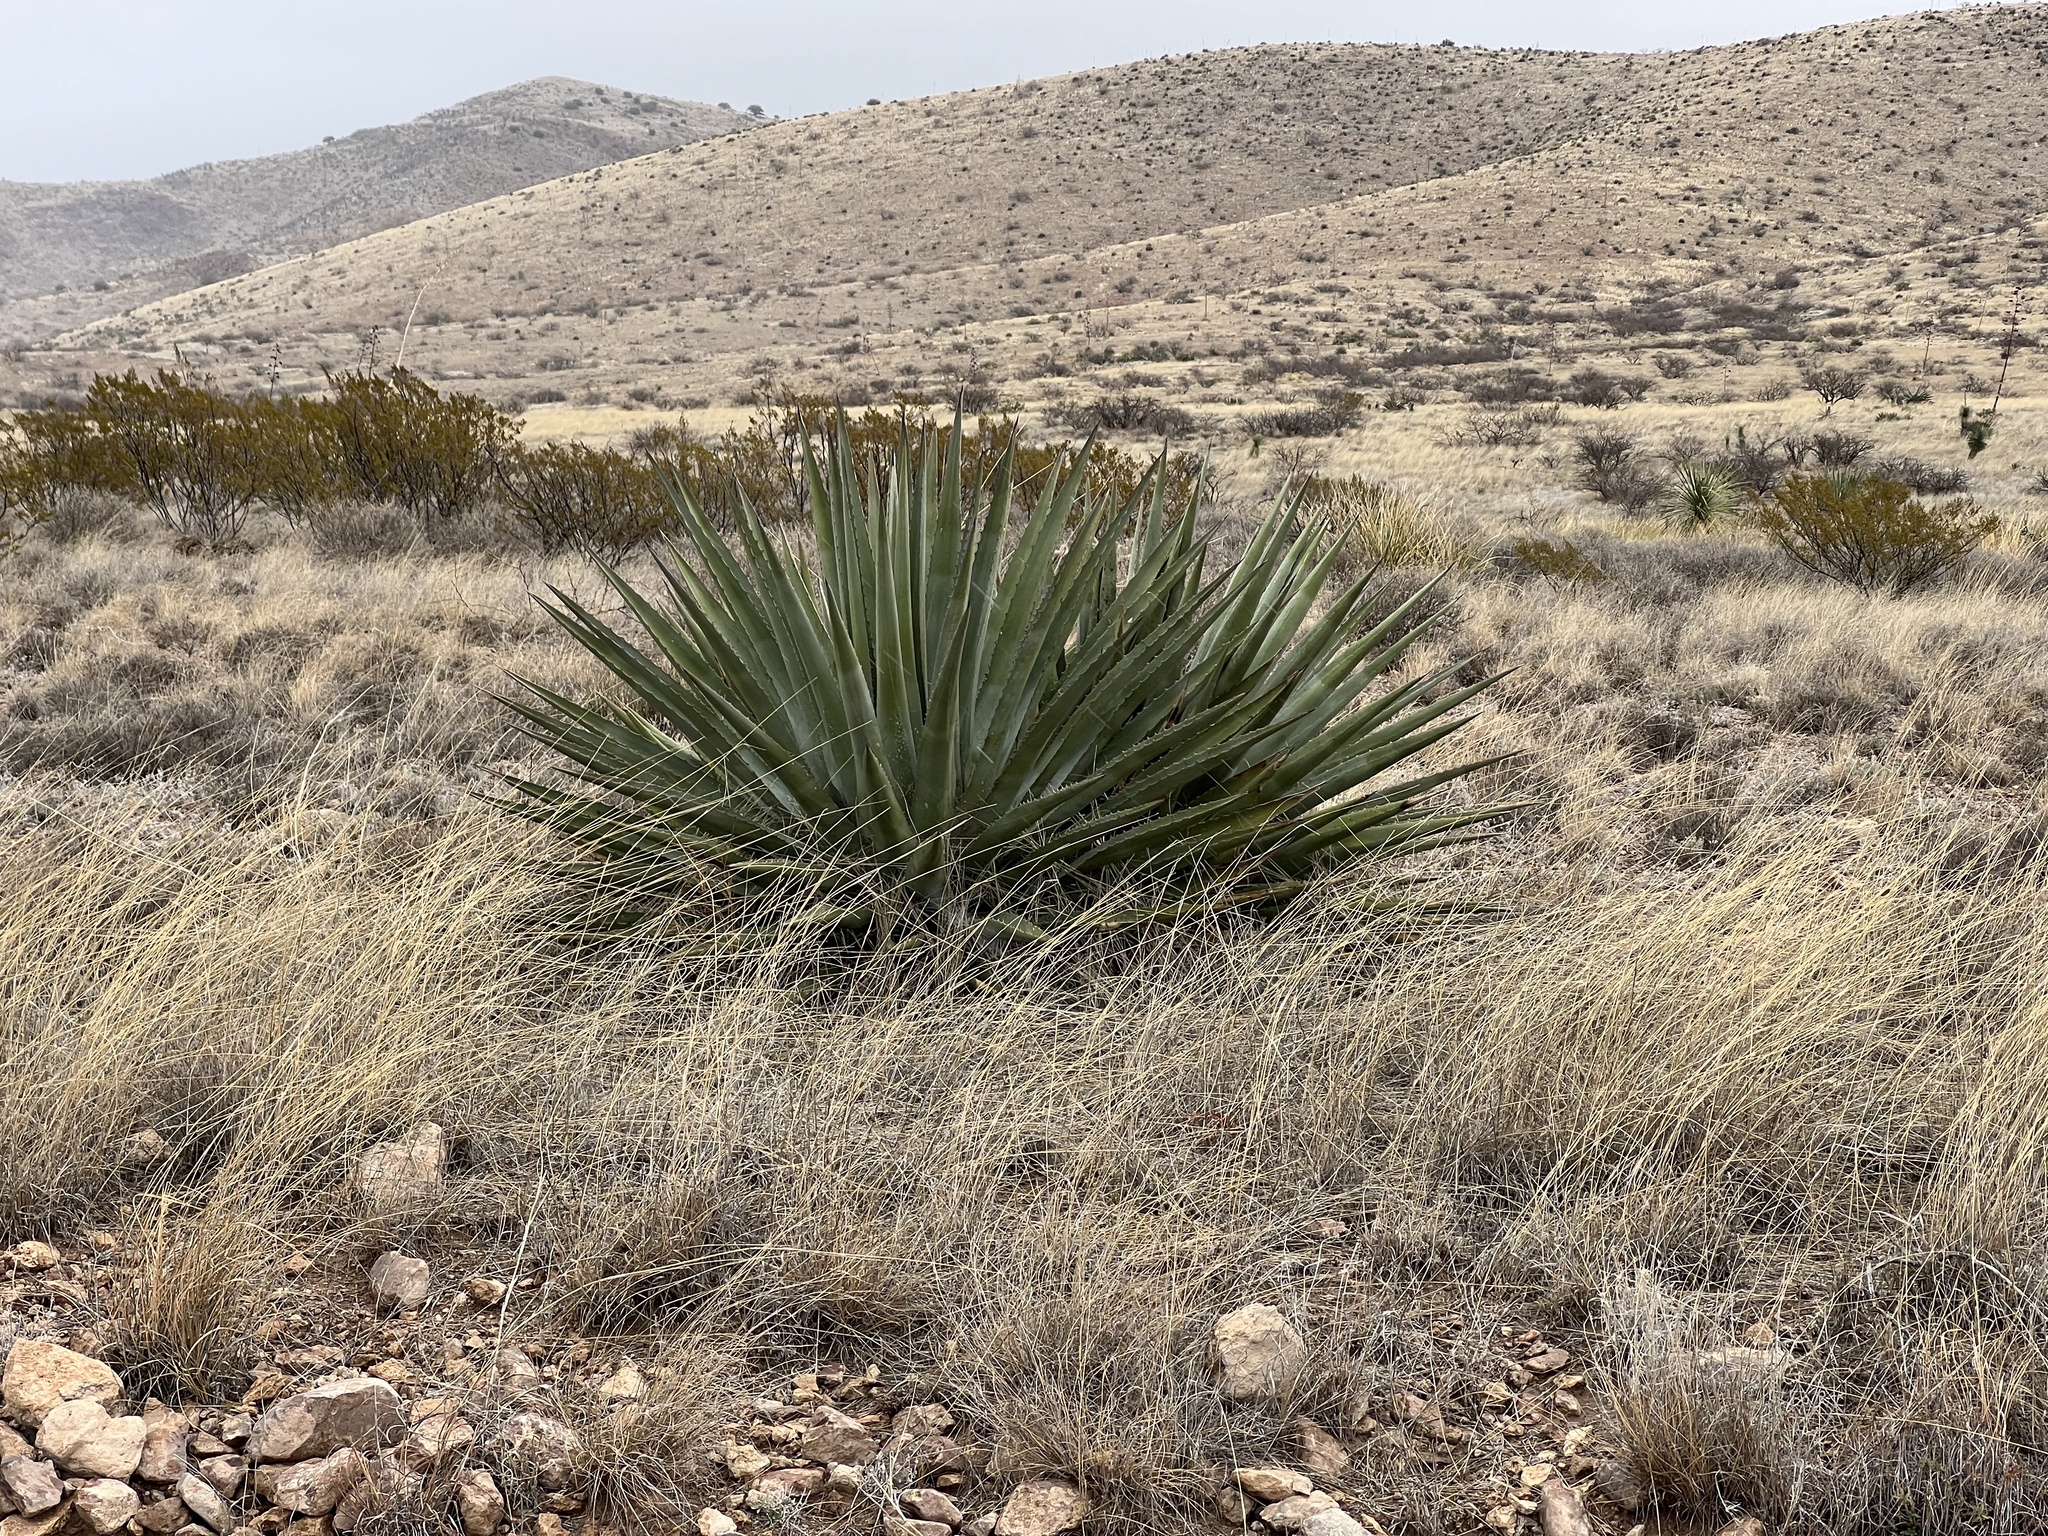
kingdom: Plantae
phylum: Tracheophyta
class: Liliopsida
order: Asparagales
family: Asparagaceae
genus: Agave
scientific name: Agave palmeri
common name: Palmer agave
